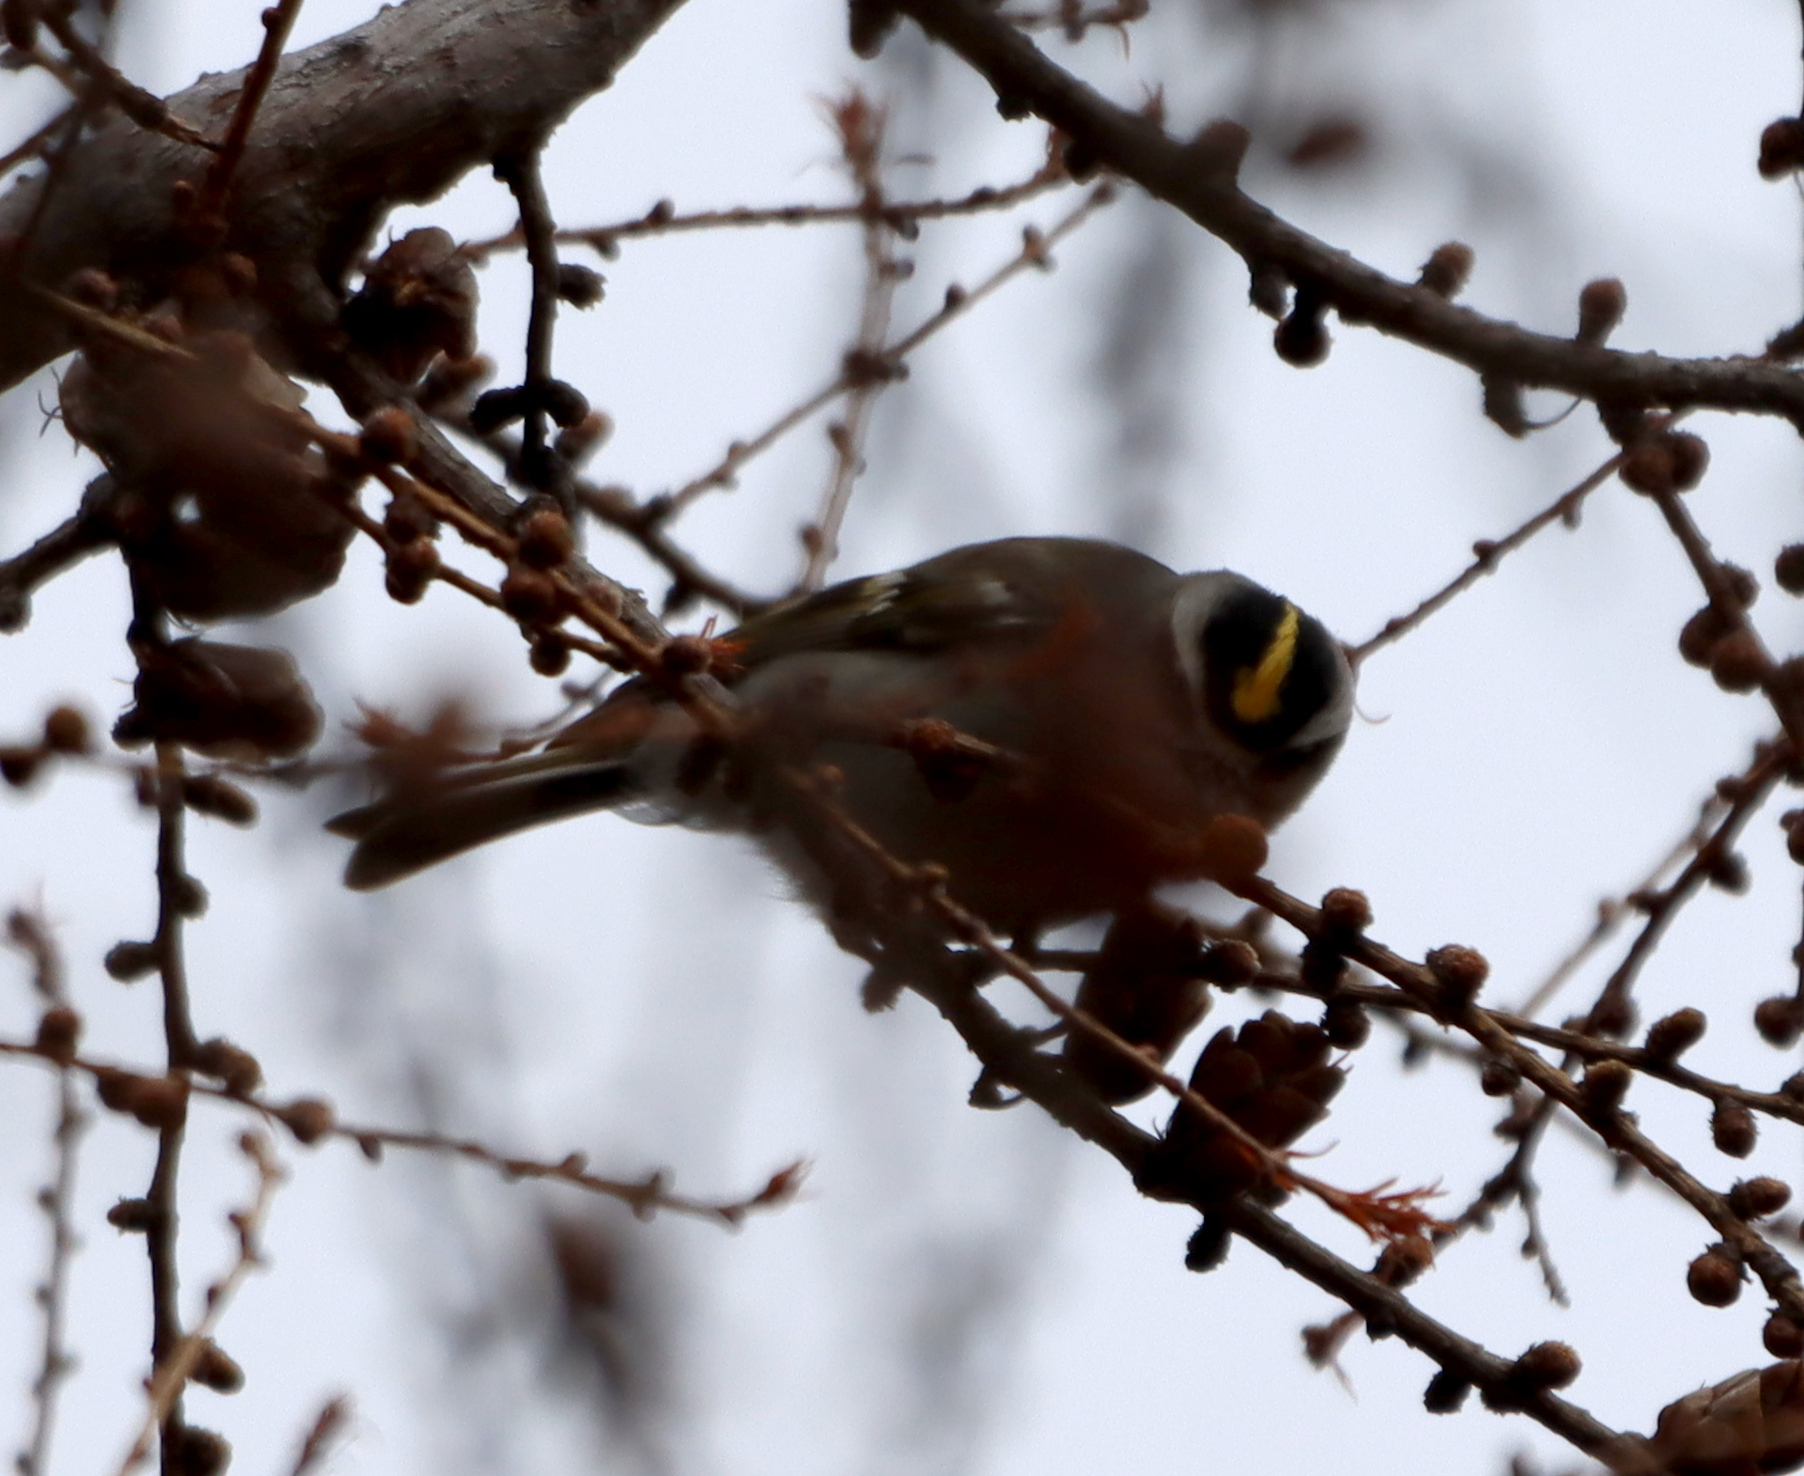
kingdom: Animalia
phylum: Chordata
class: Aves
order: Passeriformes
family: Regulidae
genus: Regulus
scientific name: Regulus satrapa
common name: Golden-crowned kinglet
